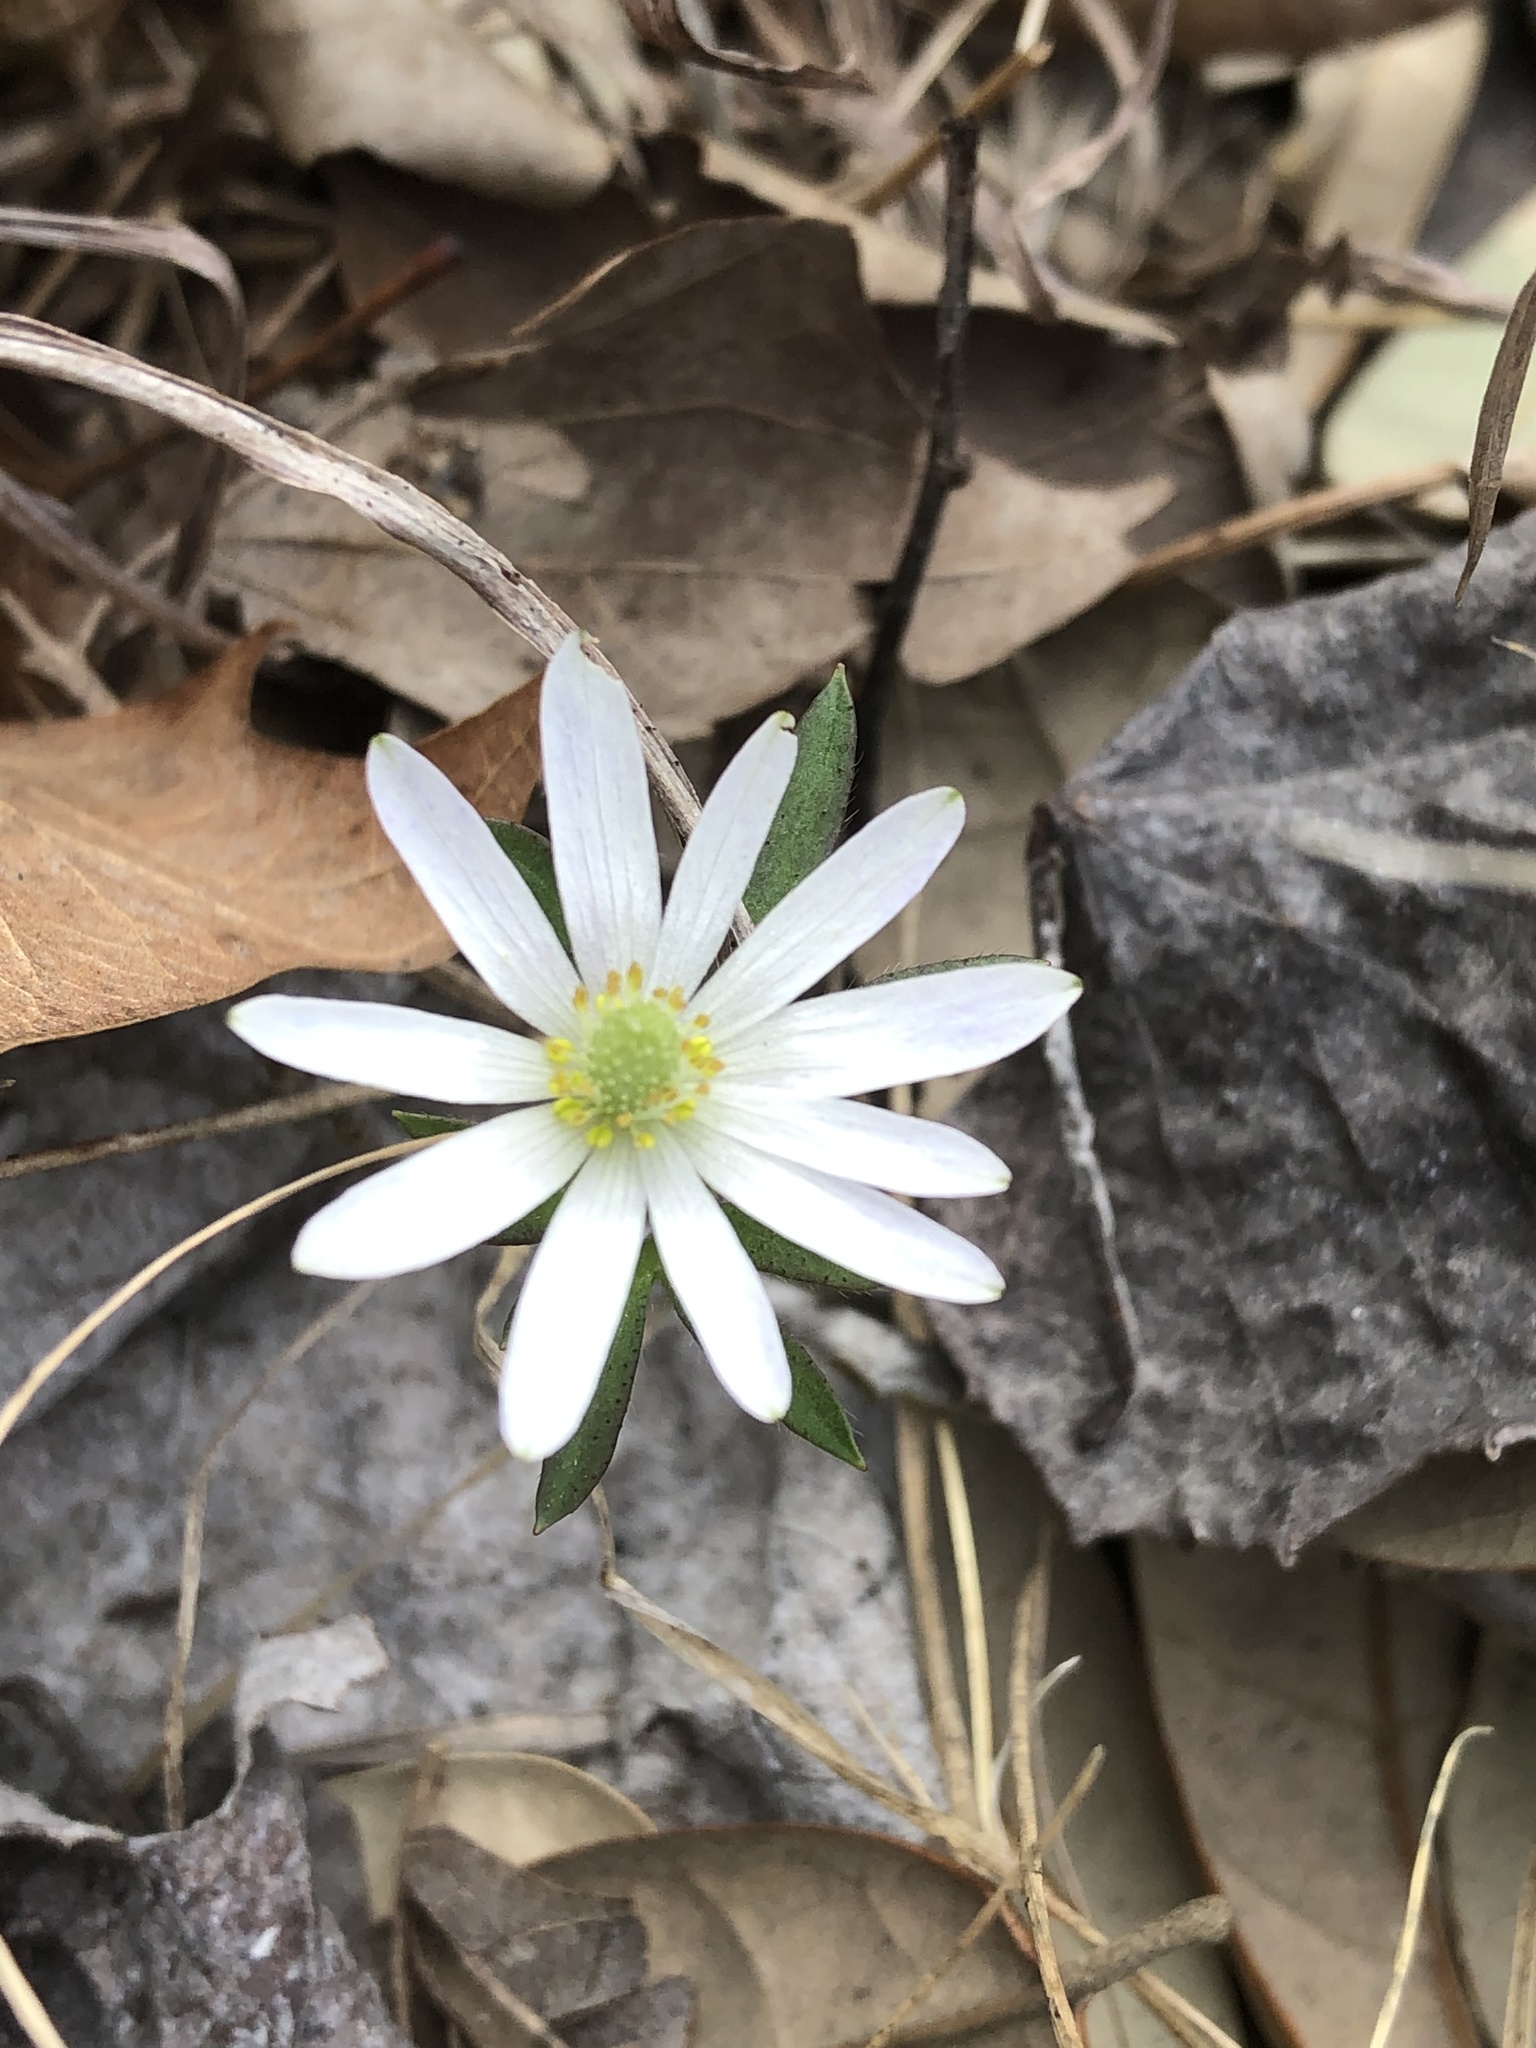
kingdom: Plantae
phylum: Tracheophyta
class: Magnoliopsida
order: Ranunculales
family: Ranunculaceae
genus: Anemone
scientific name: Anemone berlandieri
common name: Ten-petal anemone
